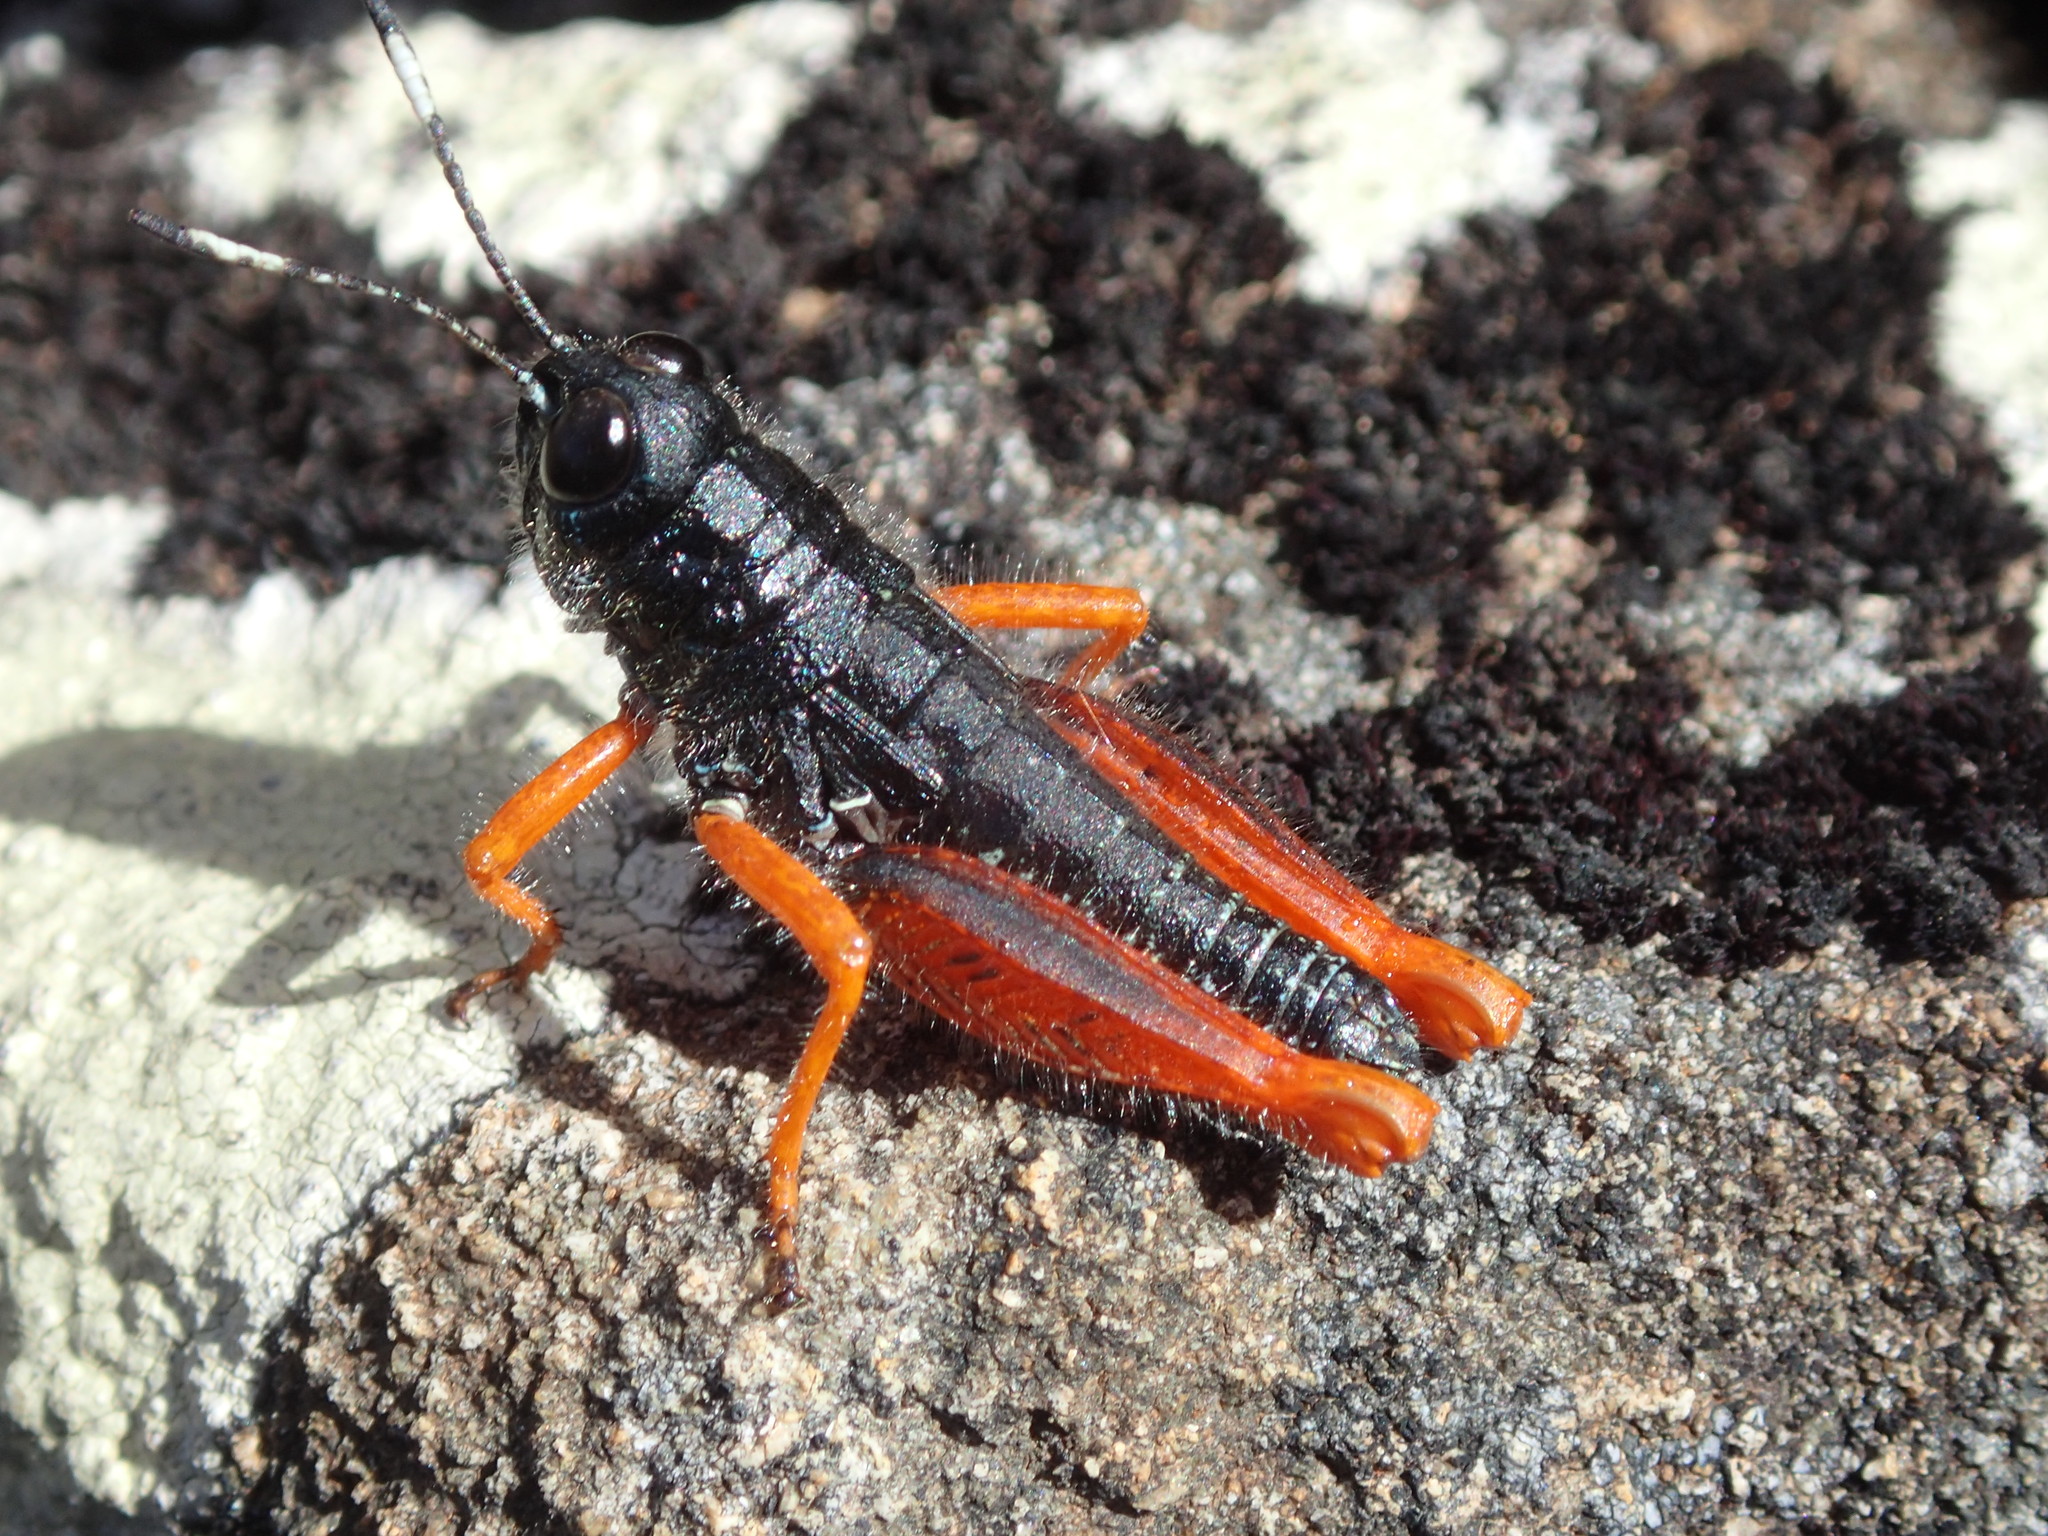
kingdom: Animalia
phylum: Arthropoda
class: Insecta
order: Orthoptera
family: Acrididae
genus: Tasmanalpina
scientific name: Tasmanalpina clavata
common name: Tasmanian velvet grasshopper
